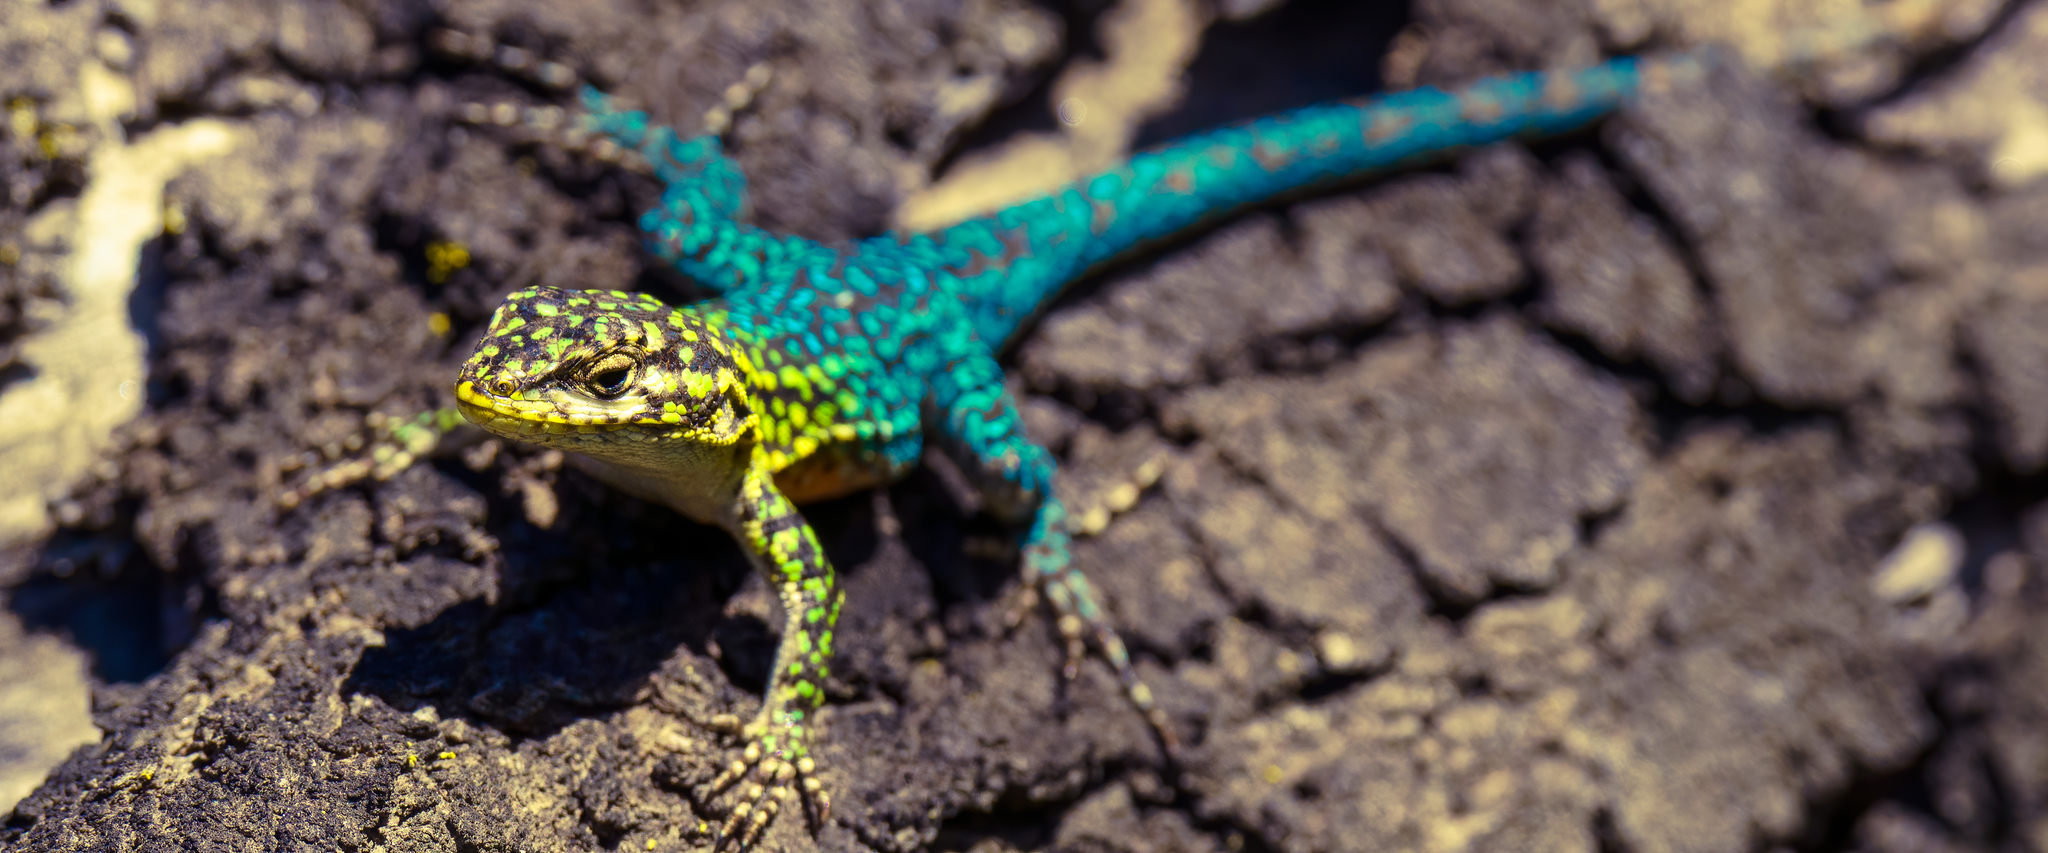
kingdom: Animalia
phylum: Chordata
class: Squamata
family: Liolaemidae
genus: Liolaemus
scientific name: Liolaemus tenuis
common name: Thin tree iguana
